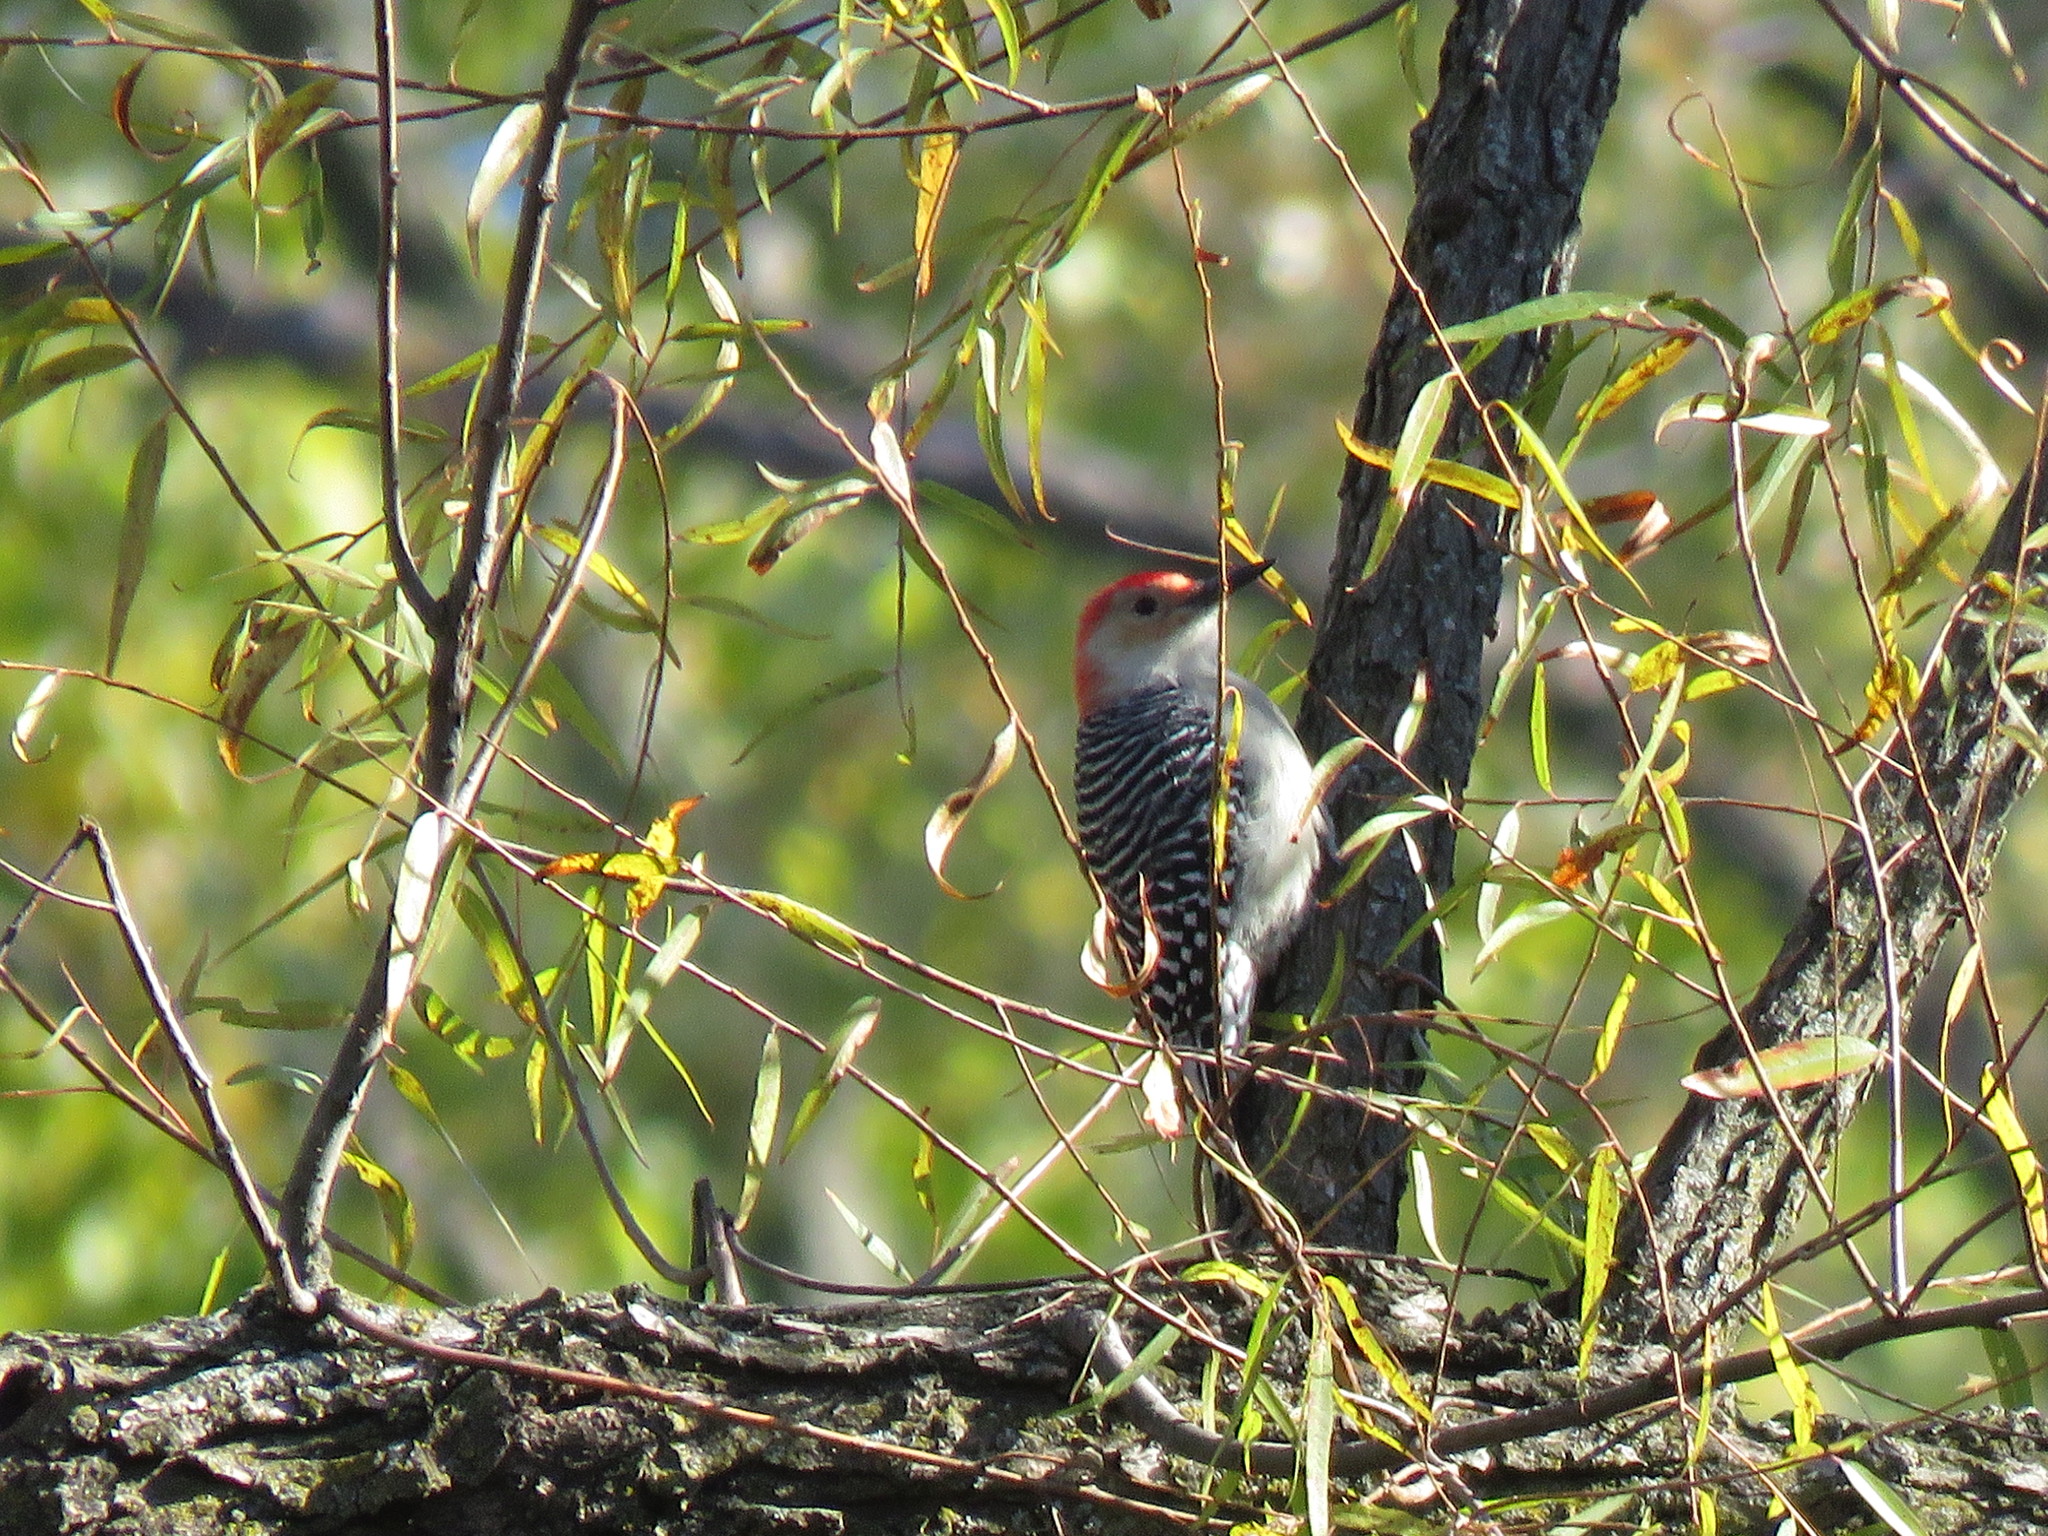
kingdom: Animalia
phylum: Chordata
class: Aves
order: Piciformes
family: Picidae
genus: Melanerpes
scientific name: Melanerpes carolinus
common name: Red-bellied woodpecker
